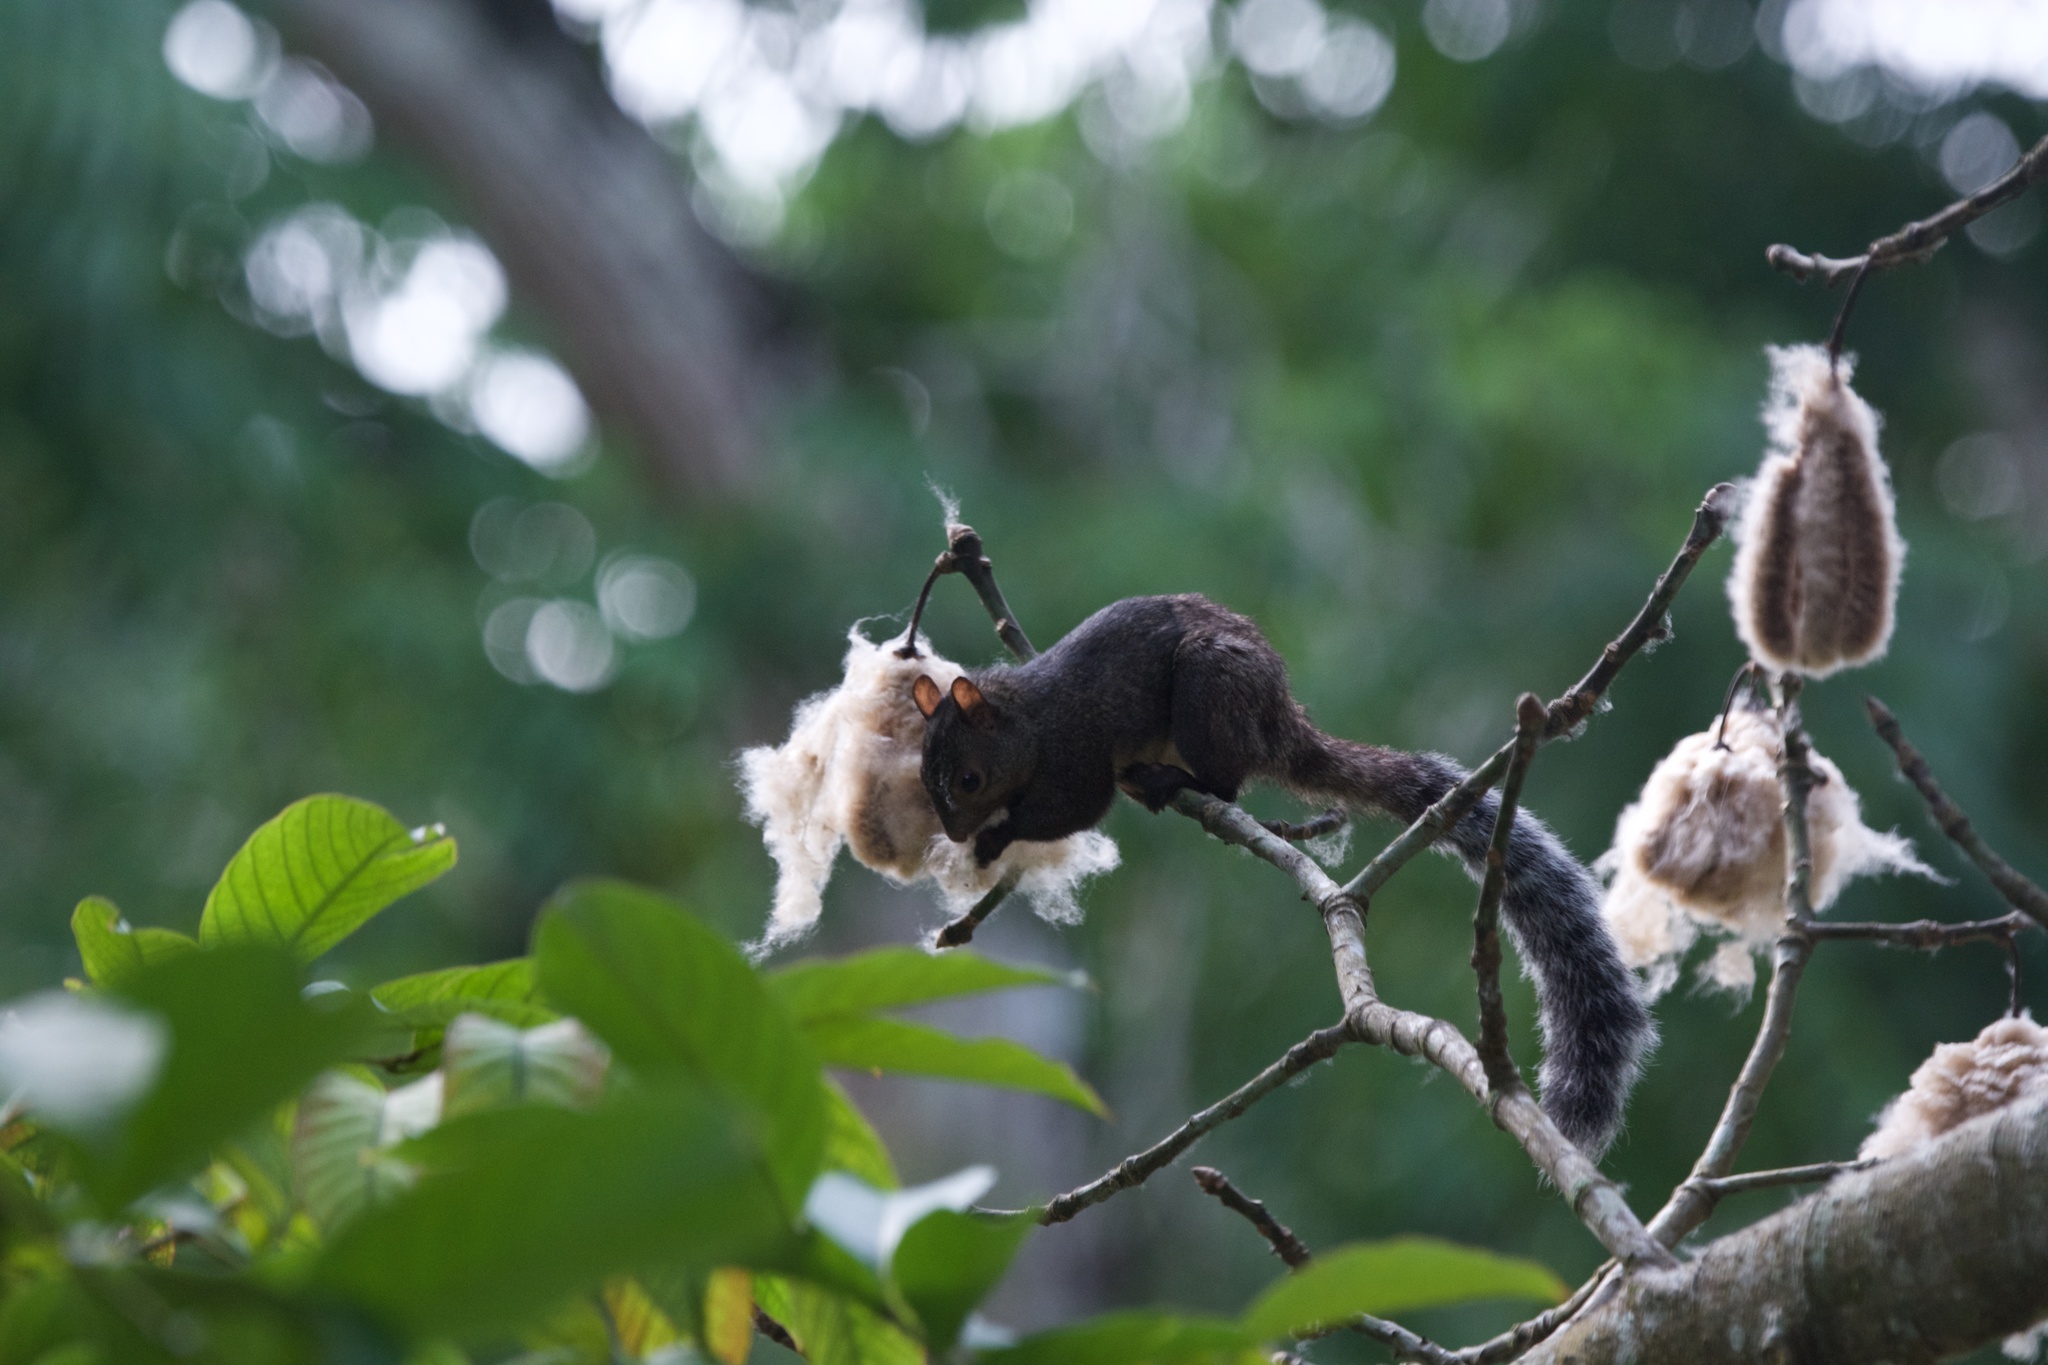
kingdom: Animalia
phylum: Chordata
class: Mammalia
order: Rodentia
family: Sciuridae
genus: Sciurus
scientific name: Sciurus yucatanensis
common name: Yucatan squirrel
